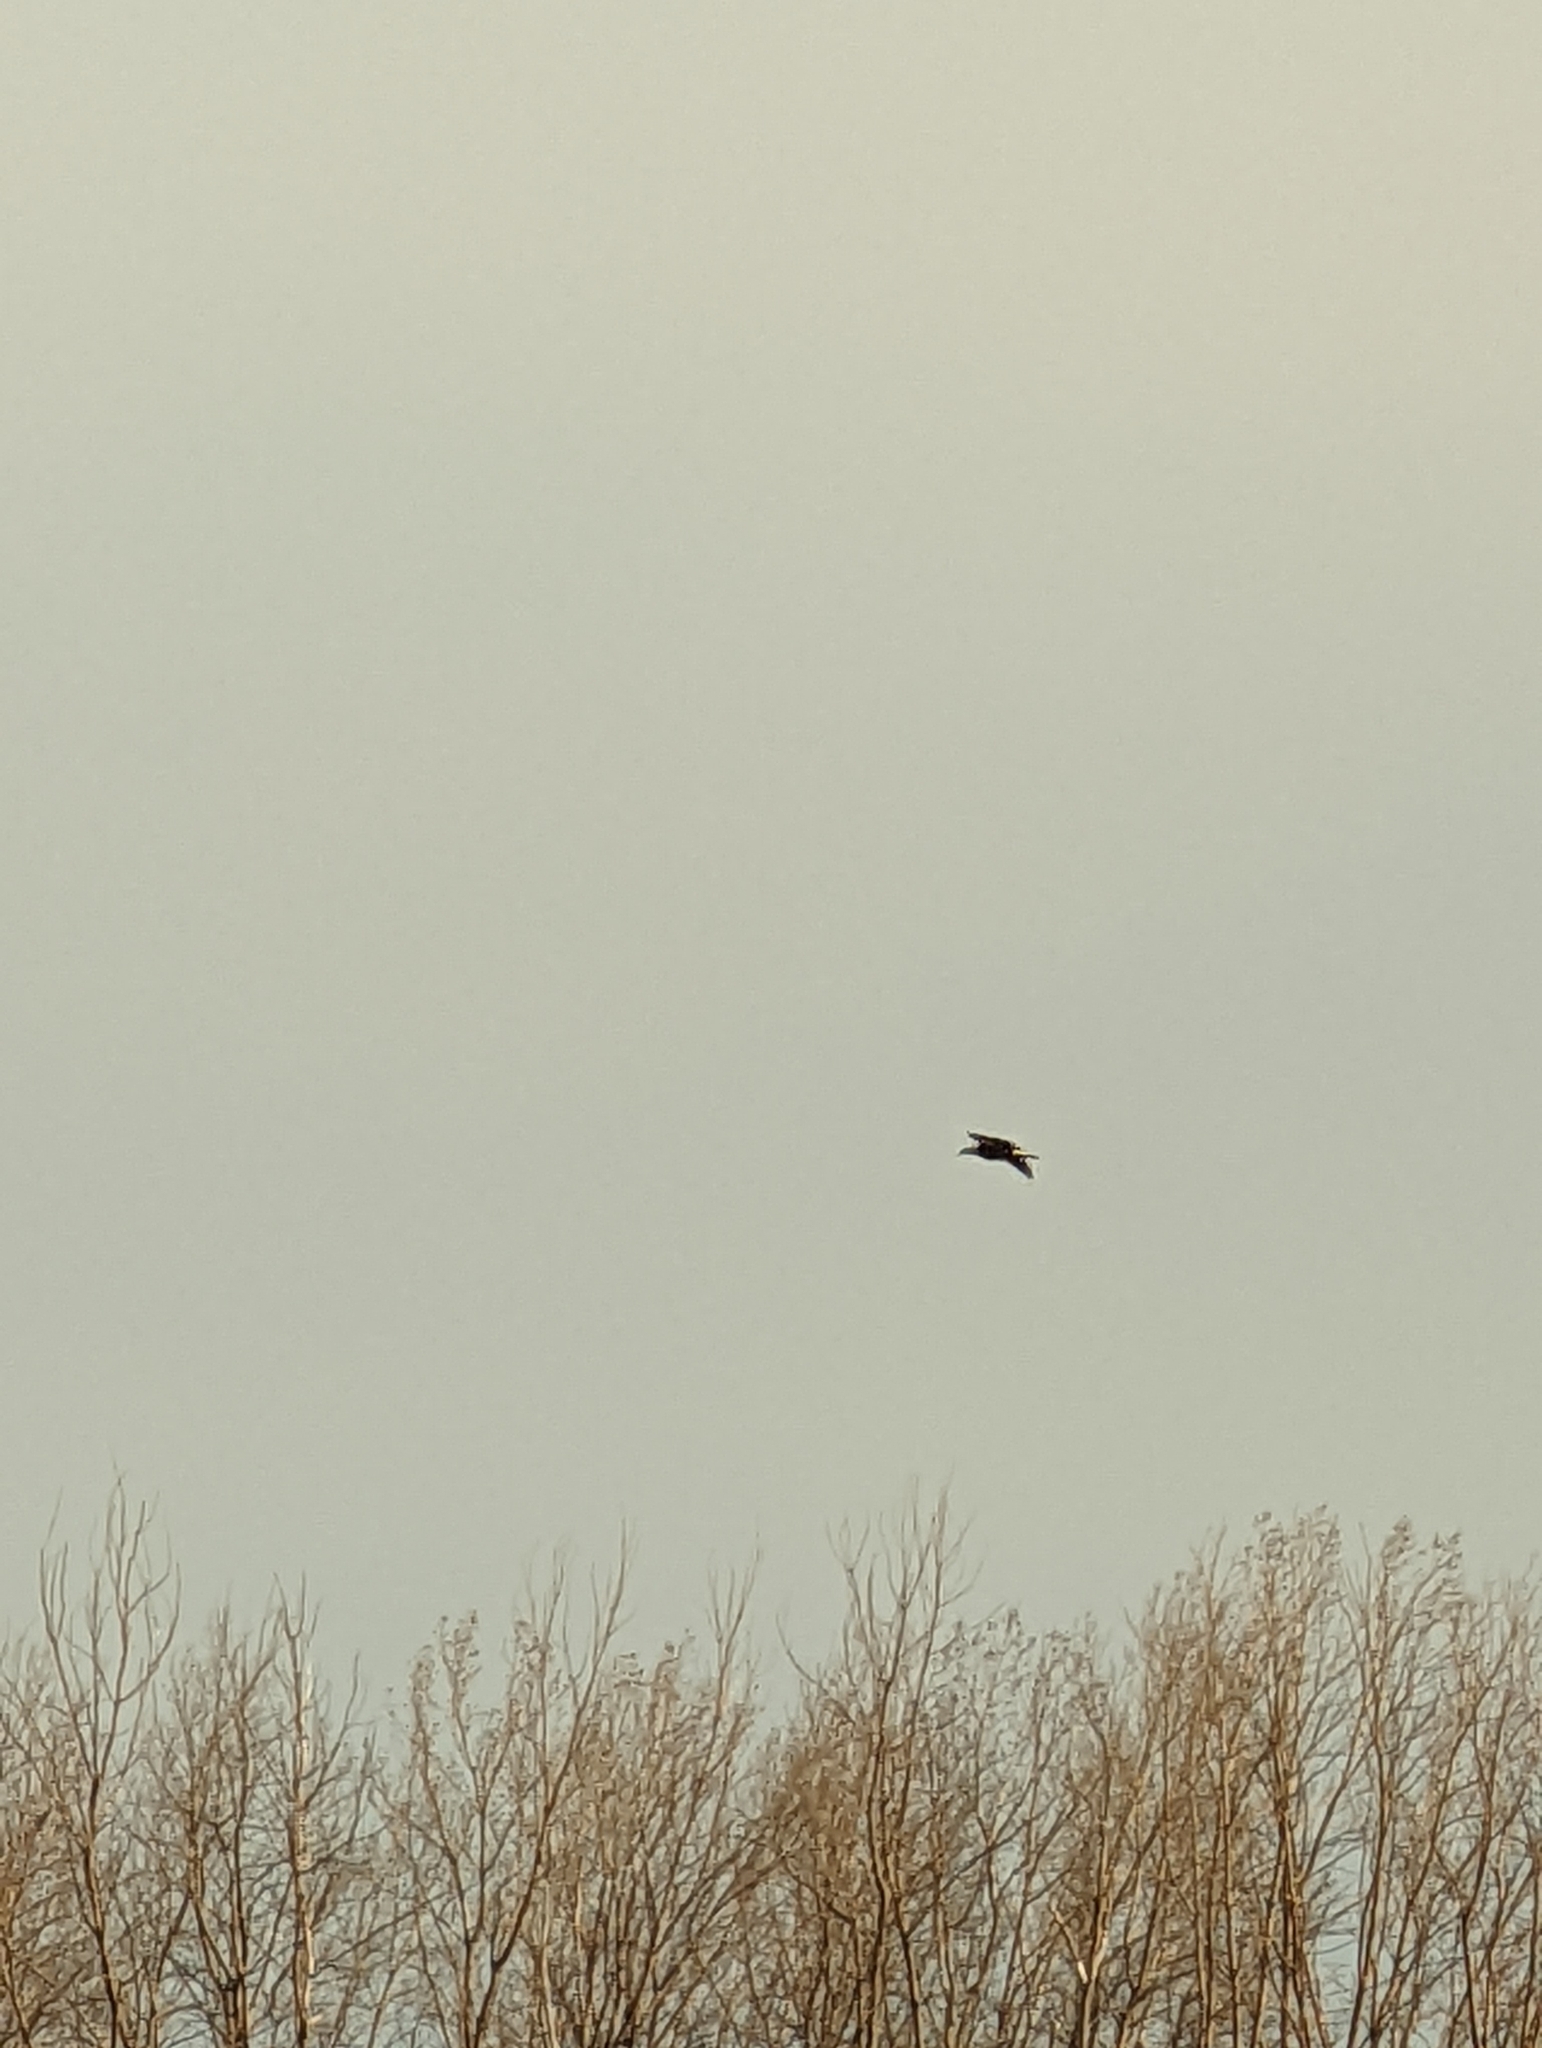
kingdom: Animalia
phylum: Chordata
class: Aves
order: Accipitriformes
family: Accipitridae
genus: Haliaeetus
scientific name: Haliaeetus leucocephalus
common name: Bald eagle
